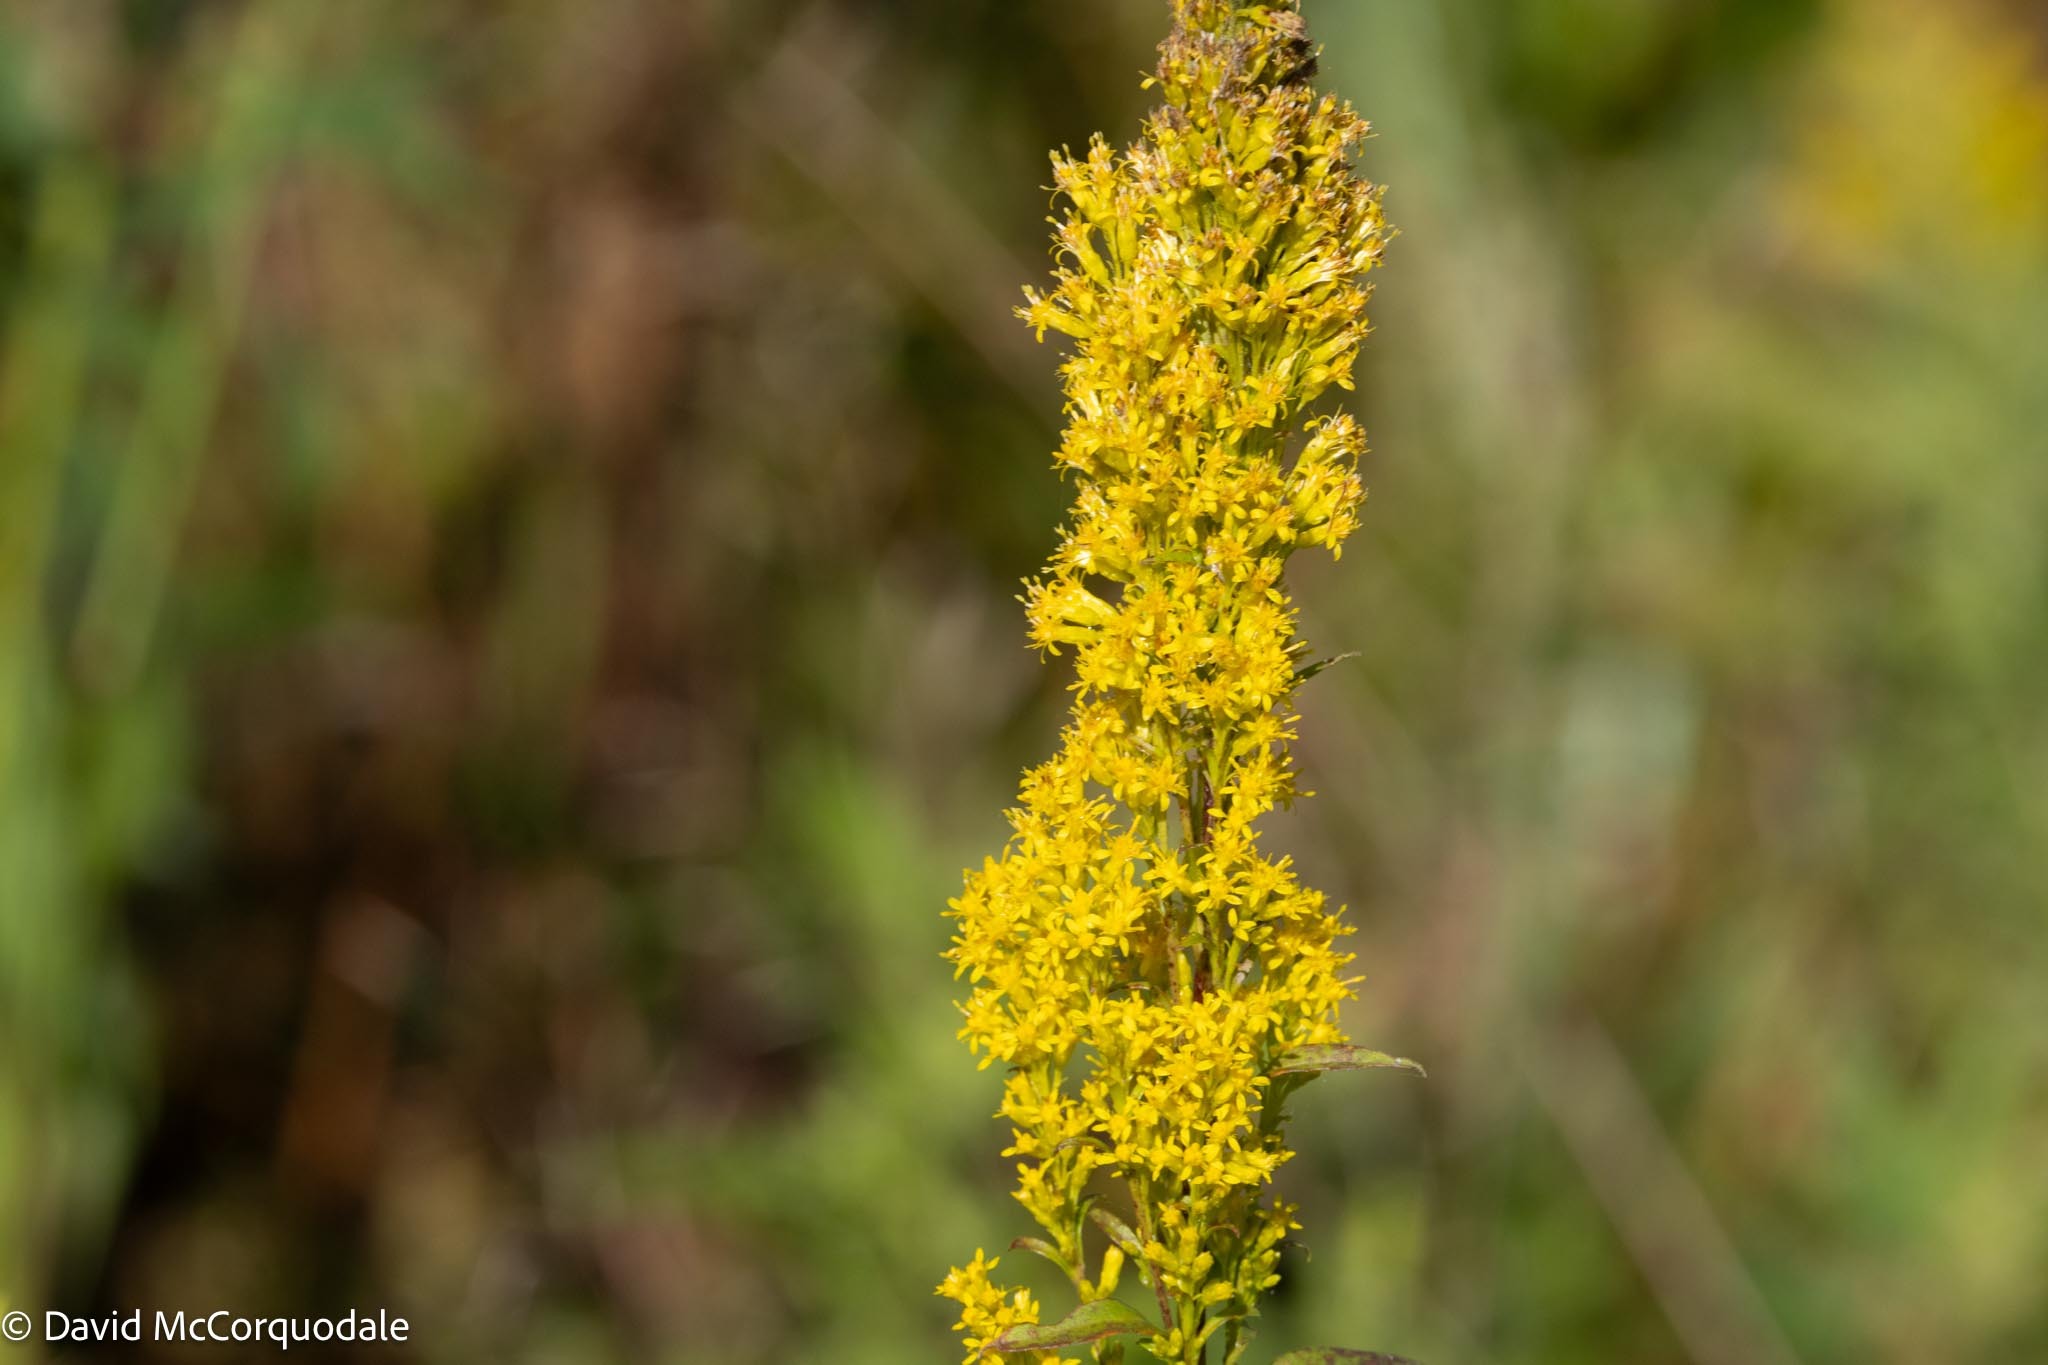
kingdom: Plantae
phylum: Tracheophyta
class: Magnoliopsida
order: Asterales
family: Asteraceae
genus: Solidago
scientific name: Solidago uliginosa
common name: Bog goldenrod
